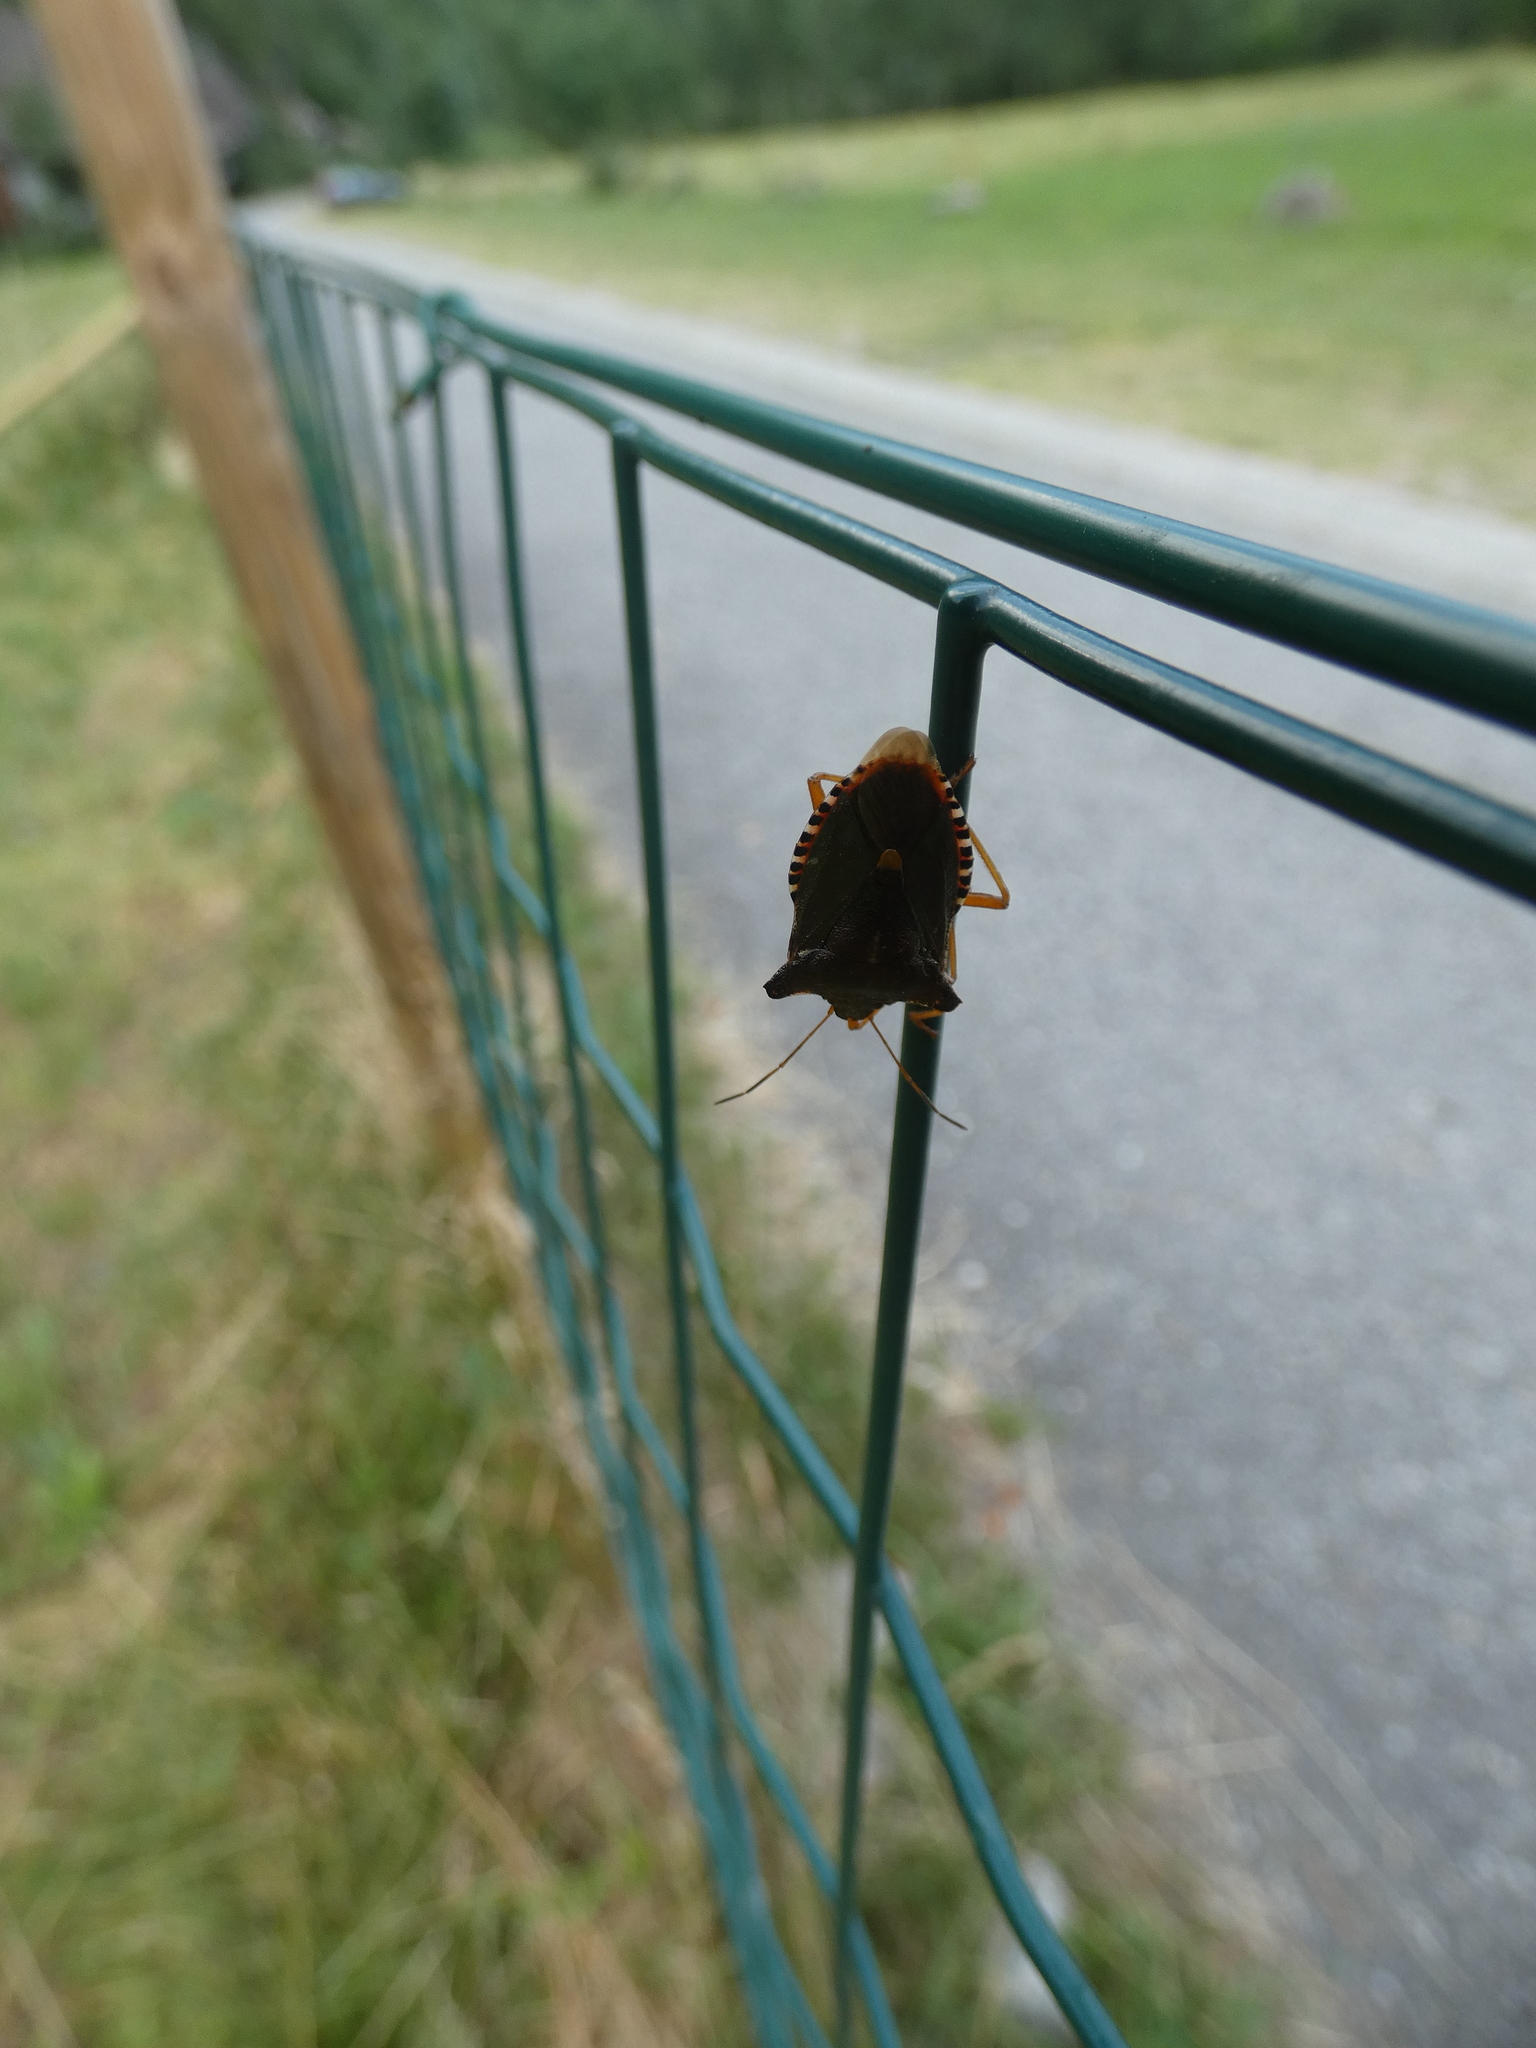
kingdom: Animalia
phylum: Arthropoda
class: Insecta
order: Hemiptera
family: Pentatomidae
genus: Pentatoma
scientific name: Pentatoma rufipes
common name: Forest bug
